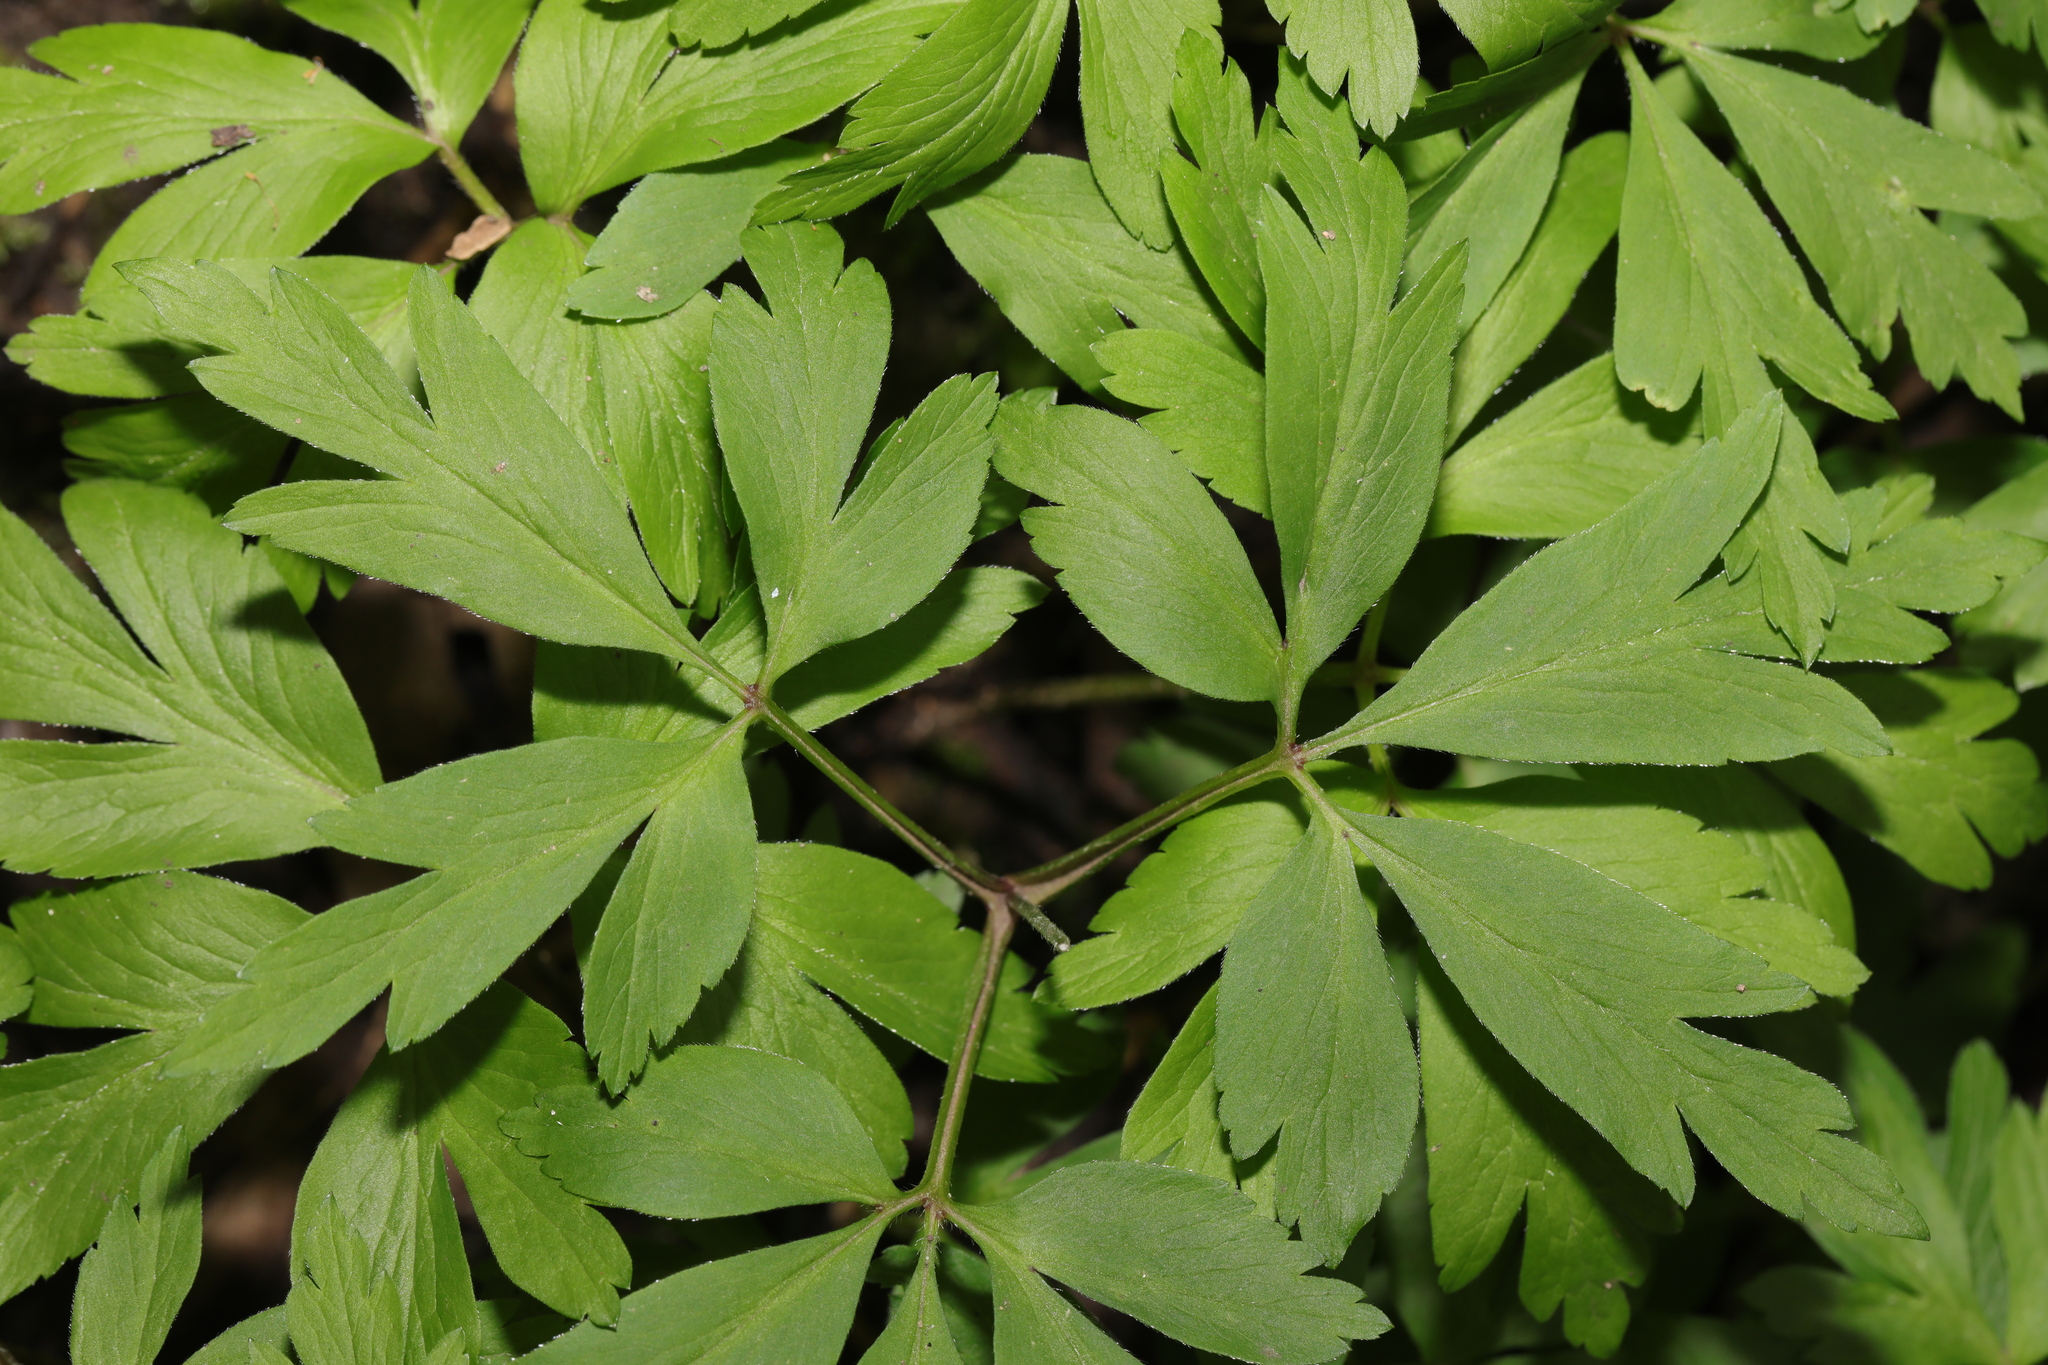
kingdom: Plantae
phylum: Tracheophyta
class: Magnoliopsida
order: Ranunculales
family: Ranunculaceae
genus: Anemone
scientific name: Anemone nemorosa
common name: Wood anemone
